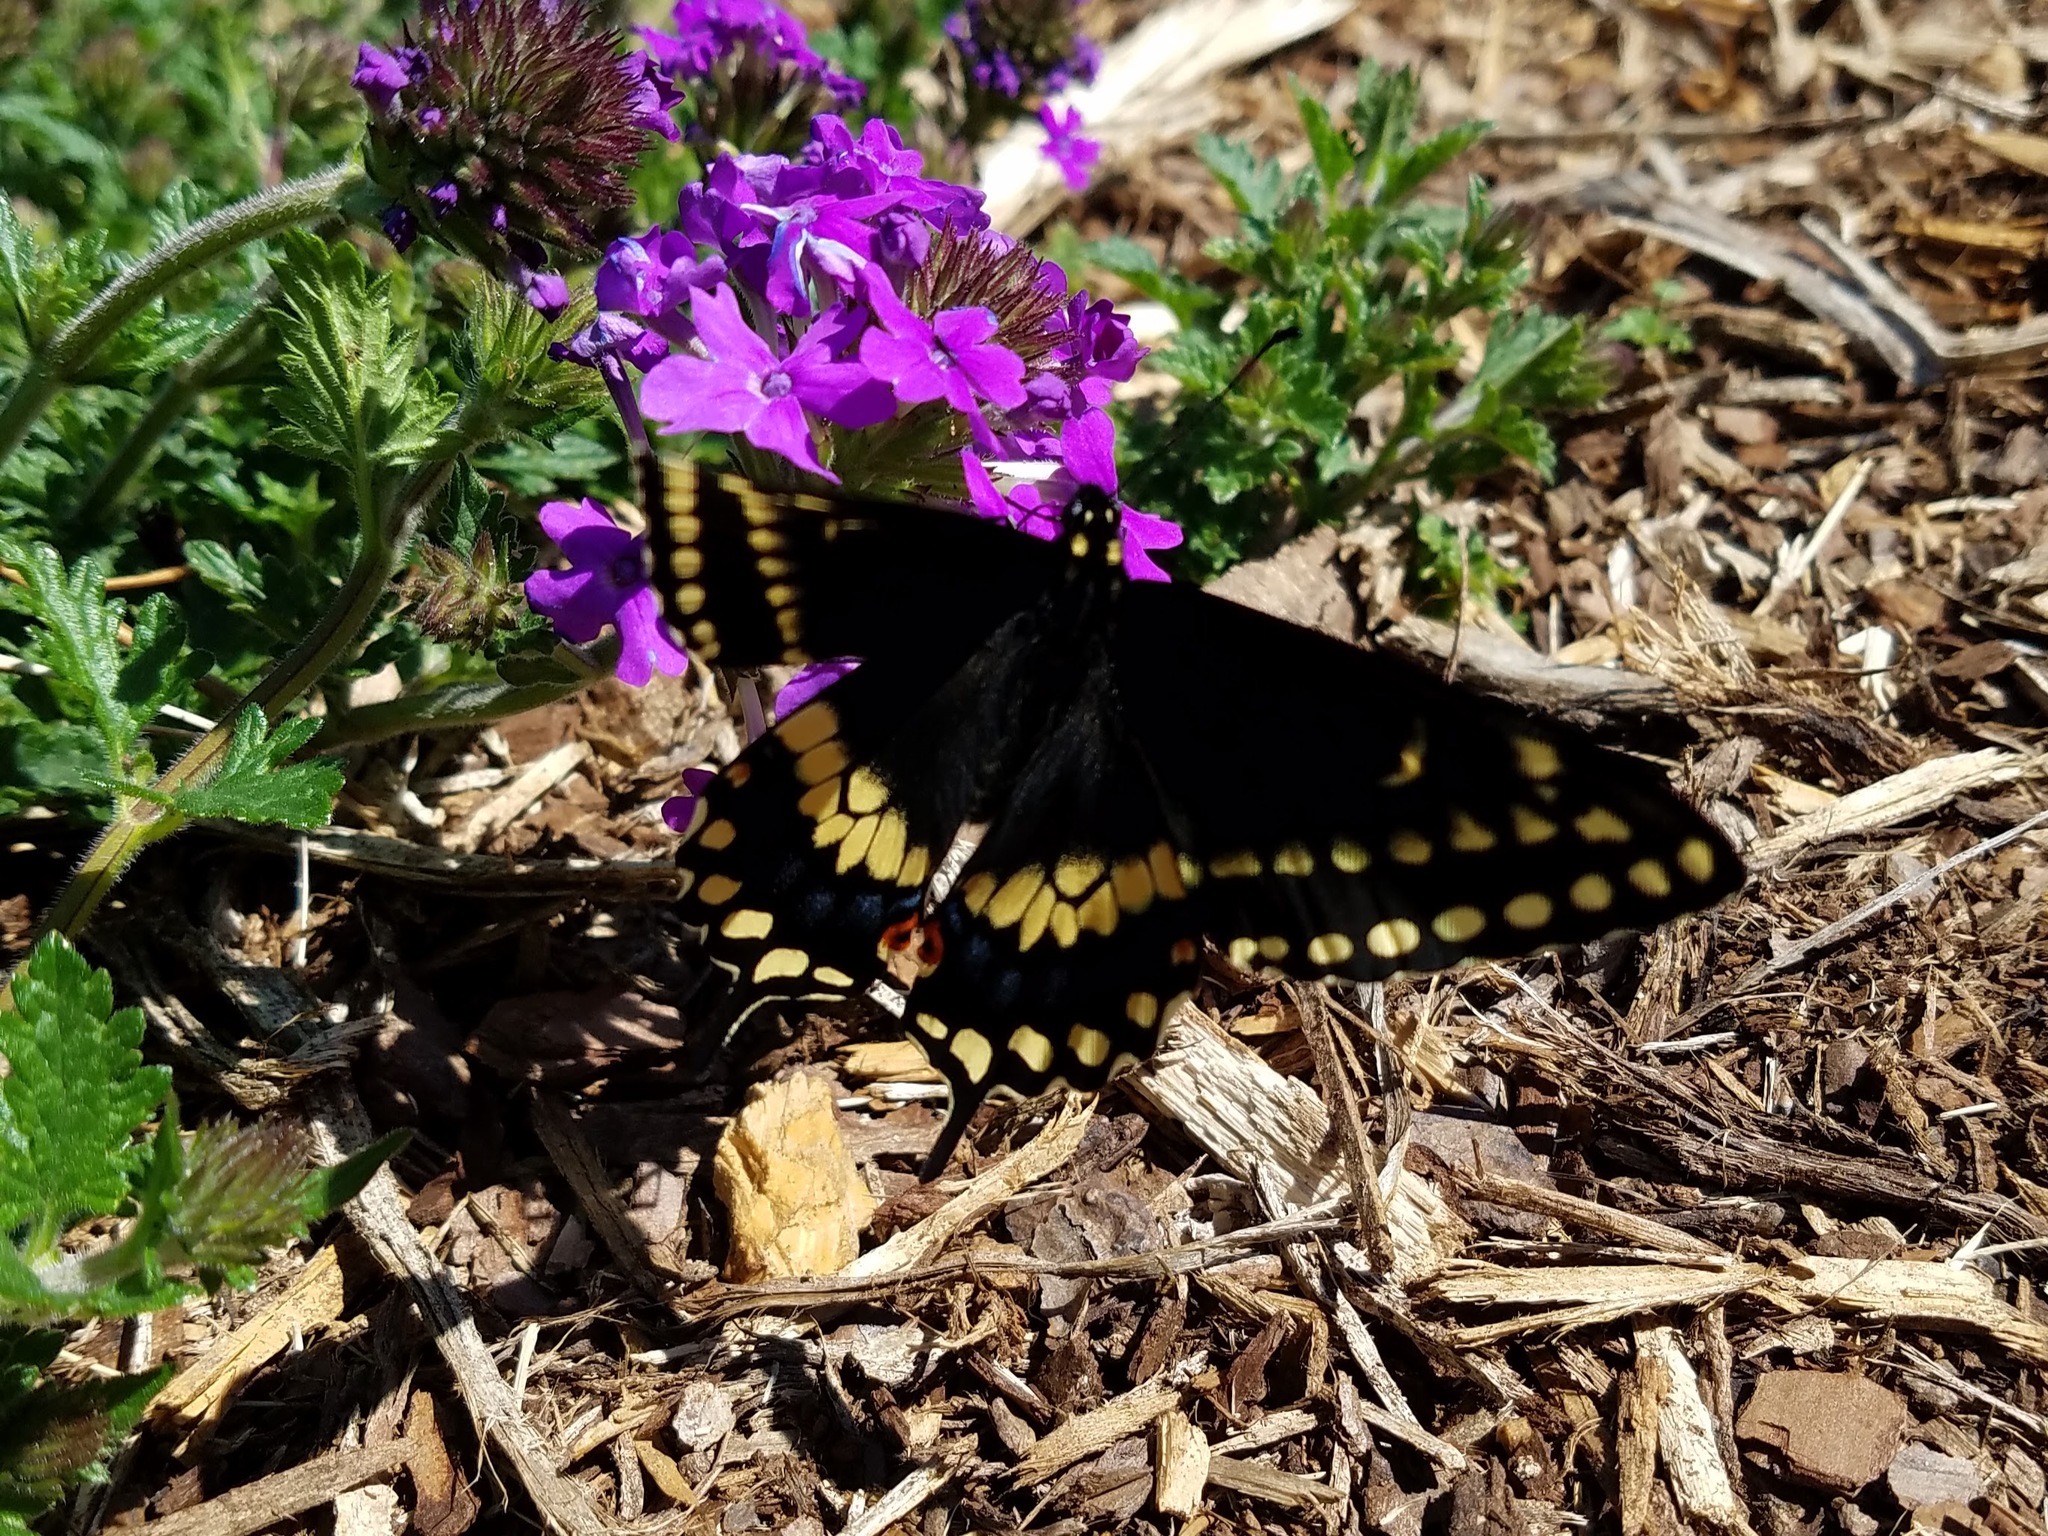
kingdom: Animalia
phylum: Arthropoda
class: Insecta
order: Lepidoptera
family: Papilionidae
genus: Papilio
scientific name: Papilio polyxenes
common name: Black swallowtail
